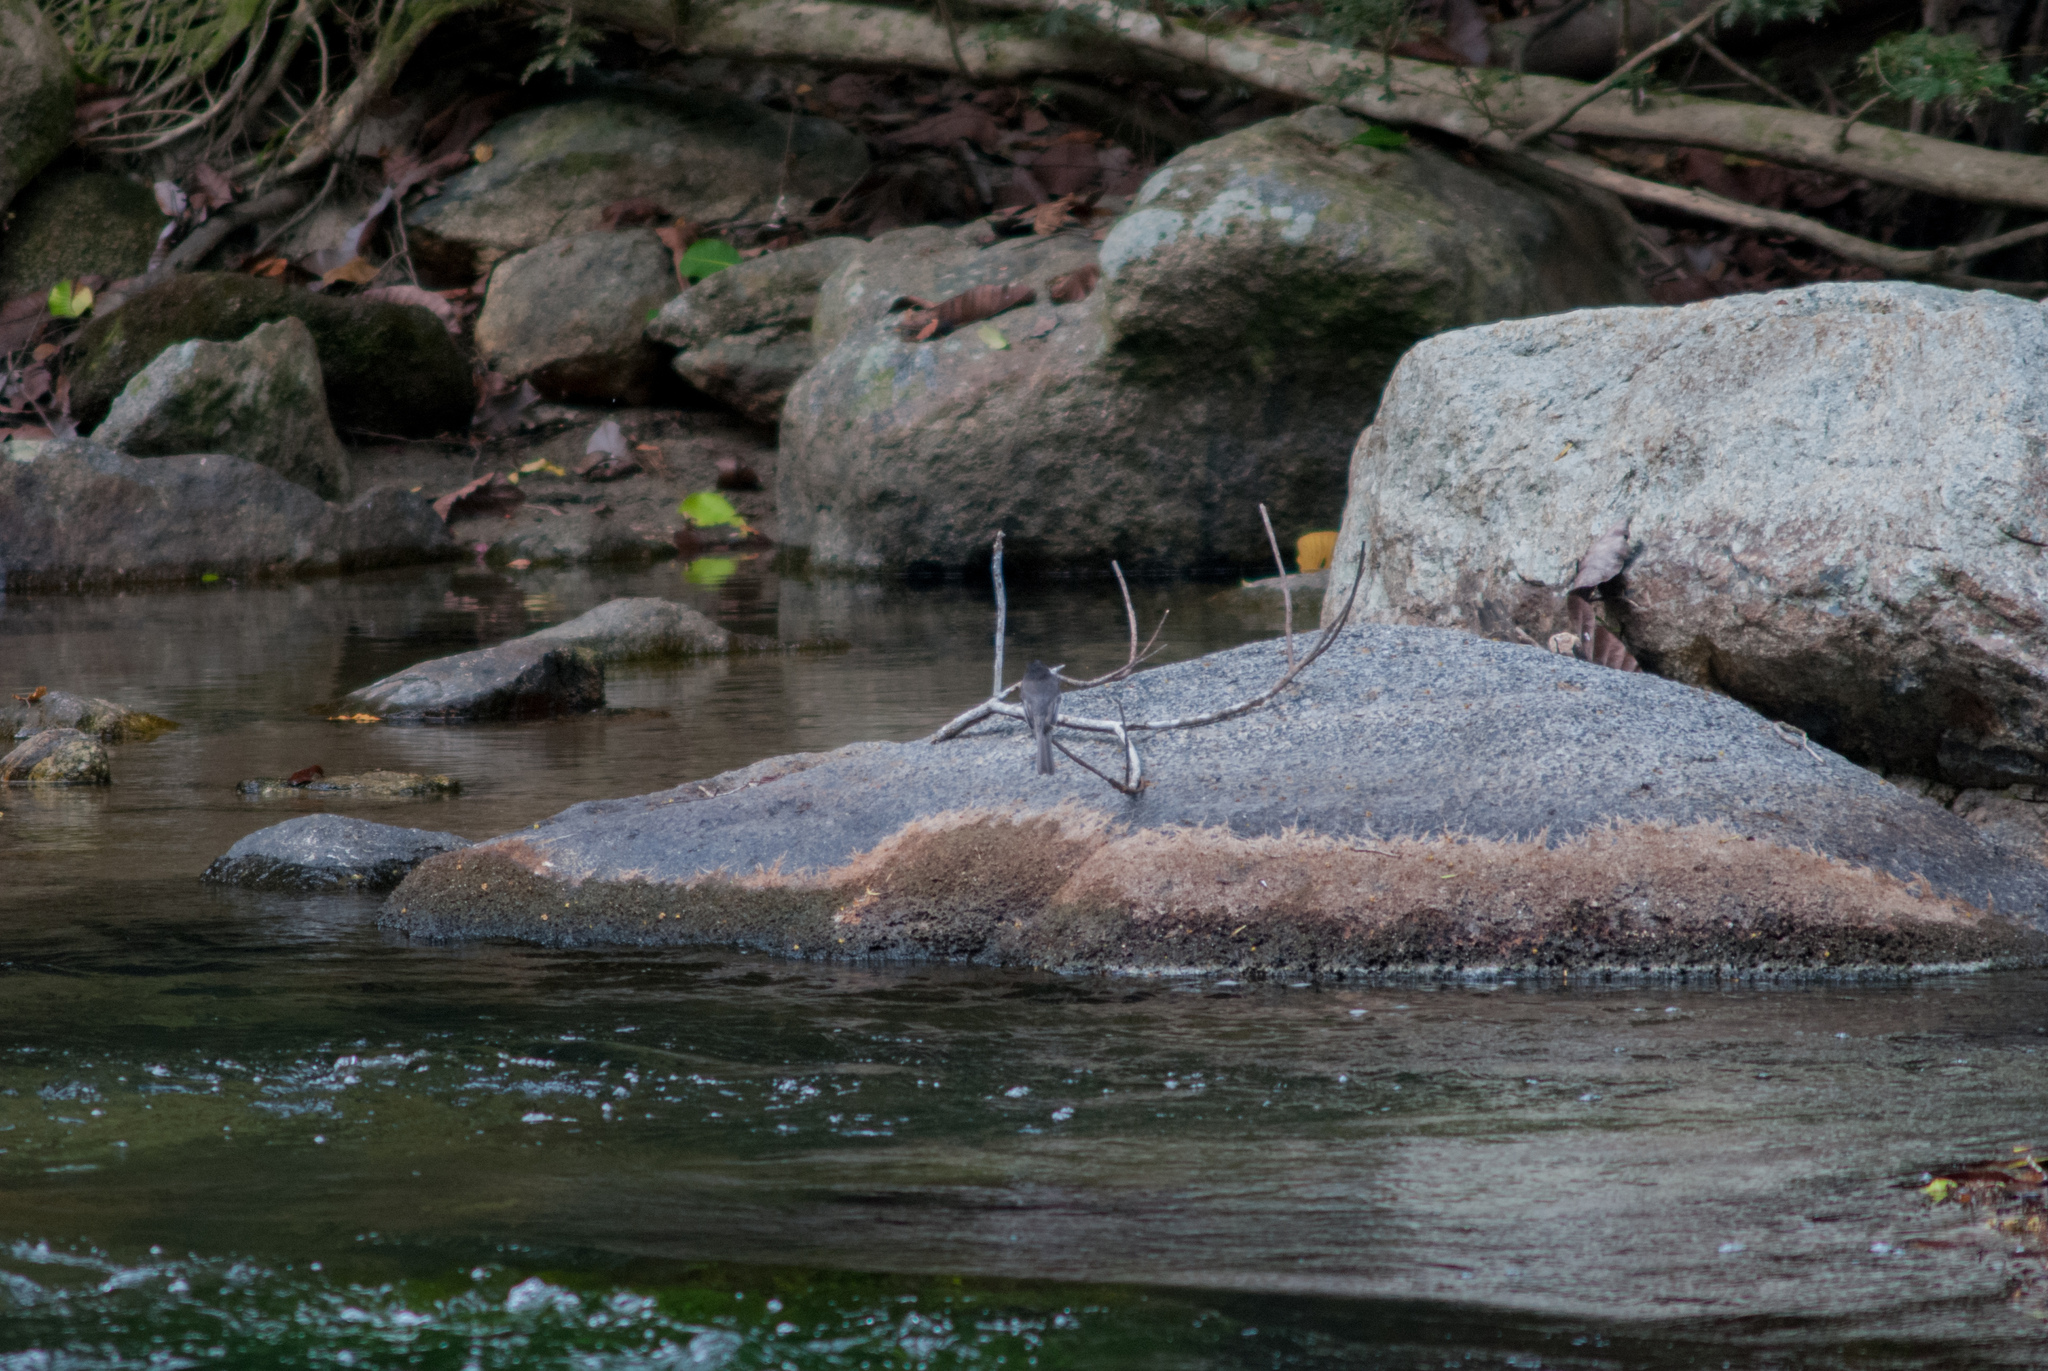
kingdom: Animalia
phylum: Chordata
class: Aves
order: Passeriformes
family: Tyrannidae
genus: Sayornis
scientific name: Sayornis nigricans
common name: Black phoebe
